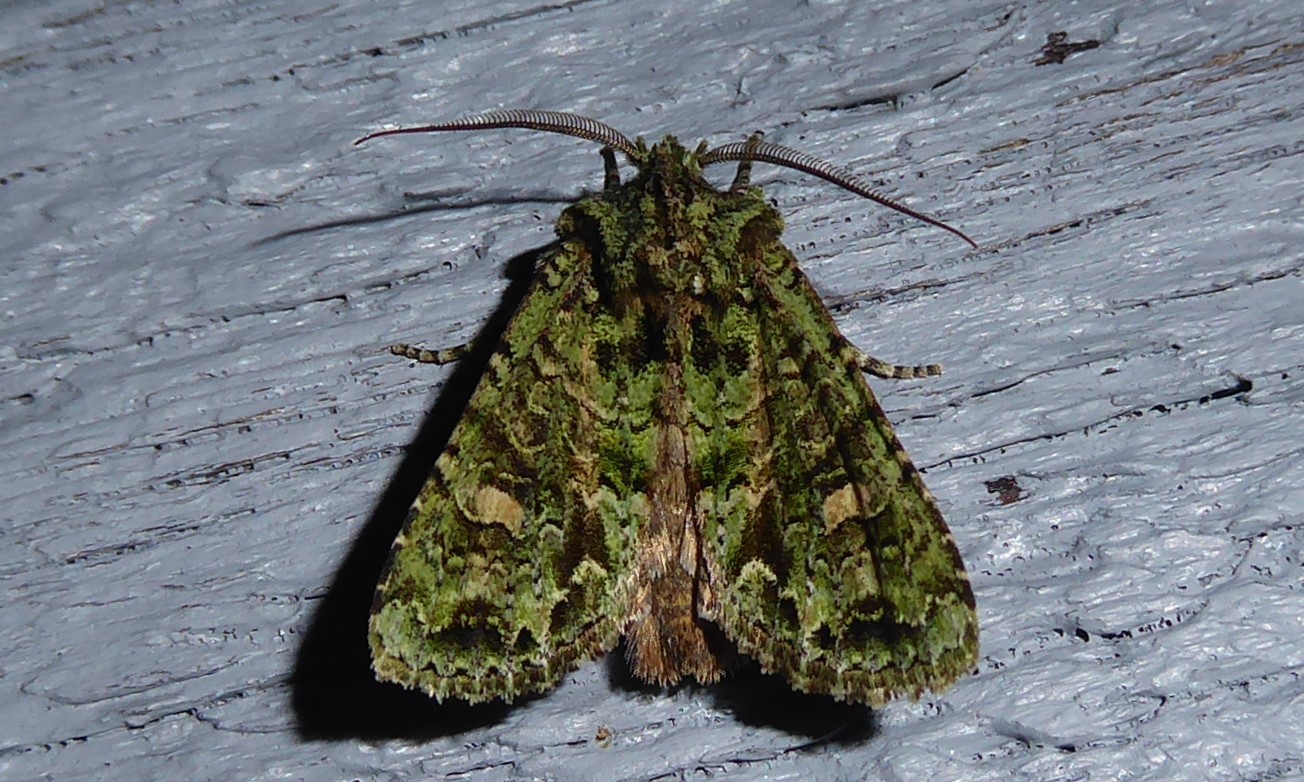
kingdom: Animalia
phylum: Arthropoda
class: Insecta
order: Lepidoptera
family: Noctuidae
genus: Ichneutica
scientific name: Ichneutica
